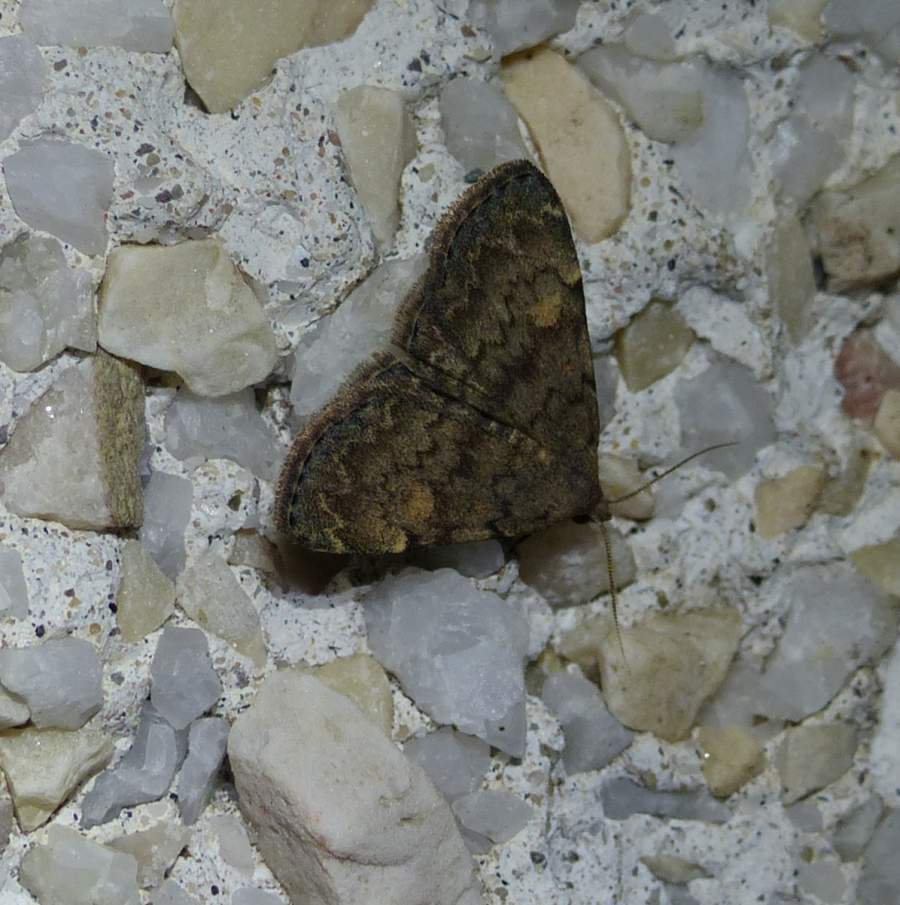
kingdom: Animalia
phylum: Arthropoda
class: Insecta
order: Lepidoptera
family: Erebidae
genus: Idia
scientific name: Idia aemula
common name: Common idia moth
